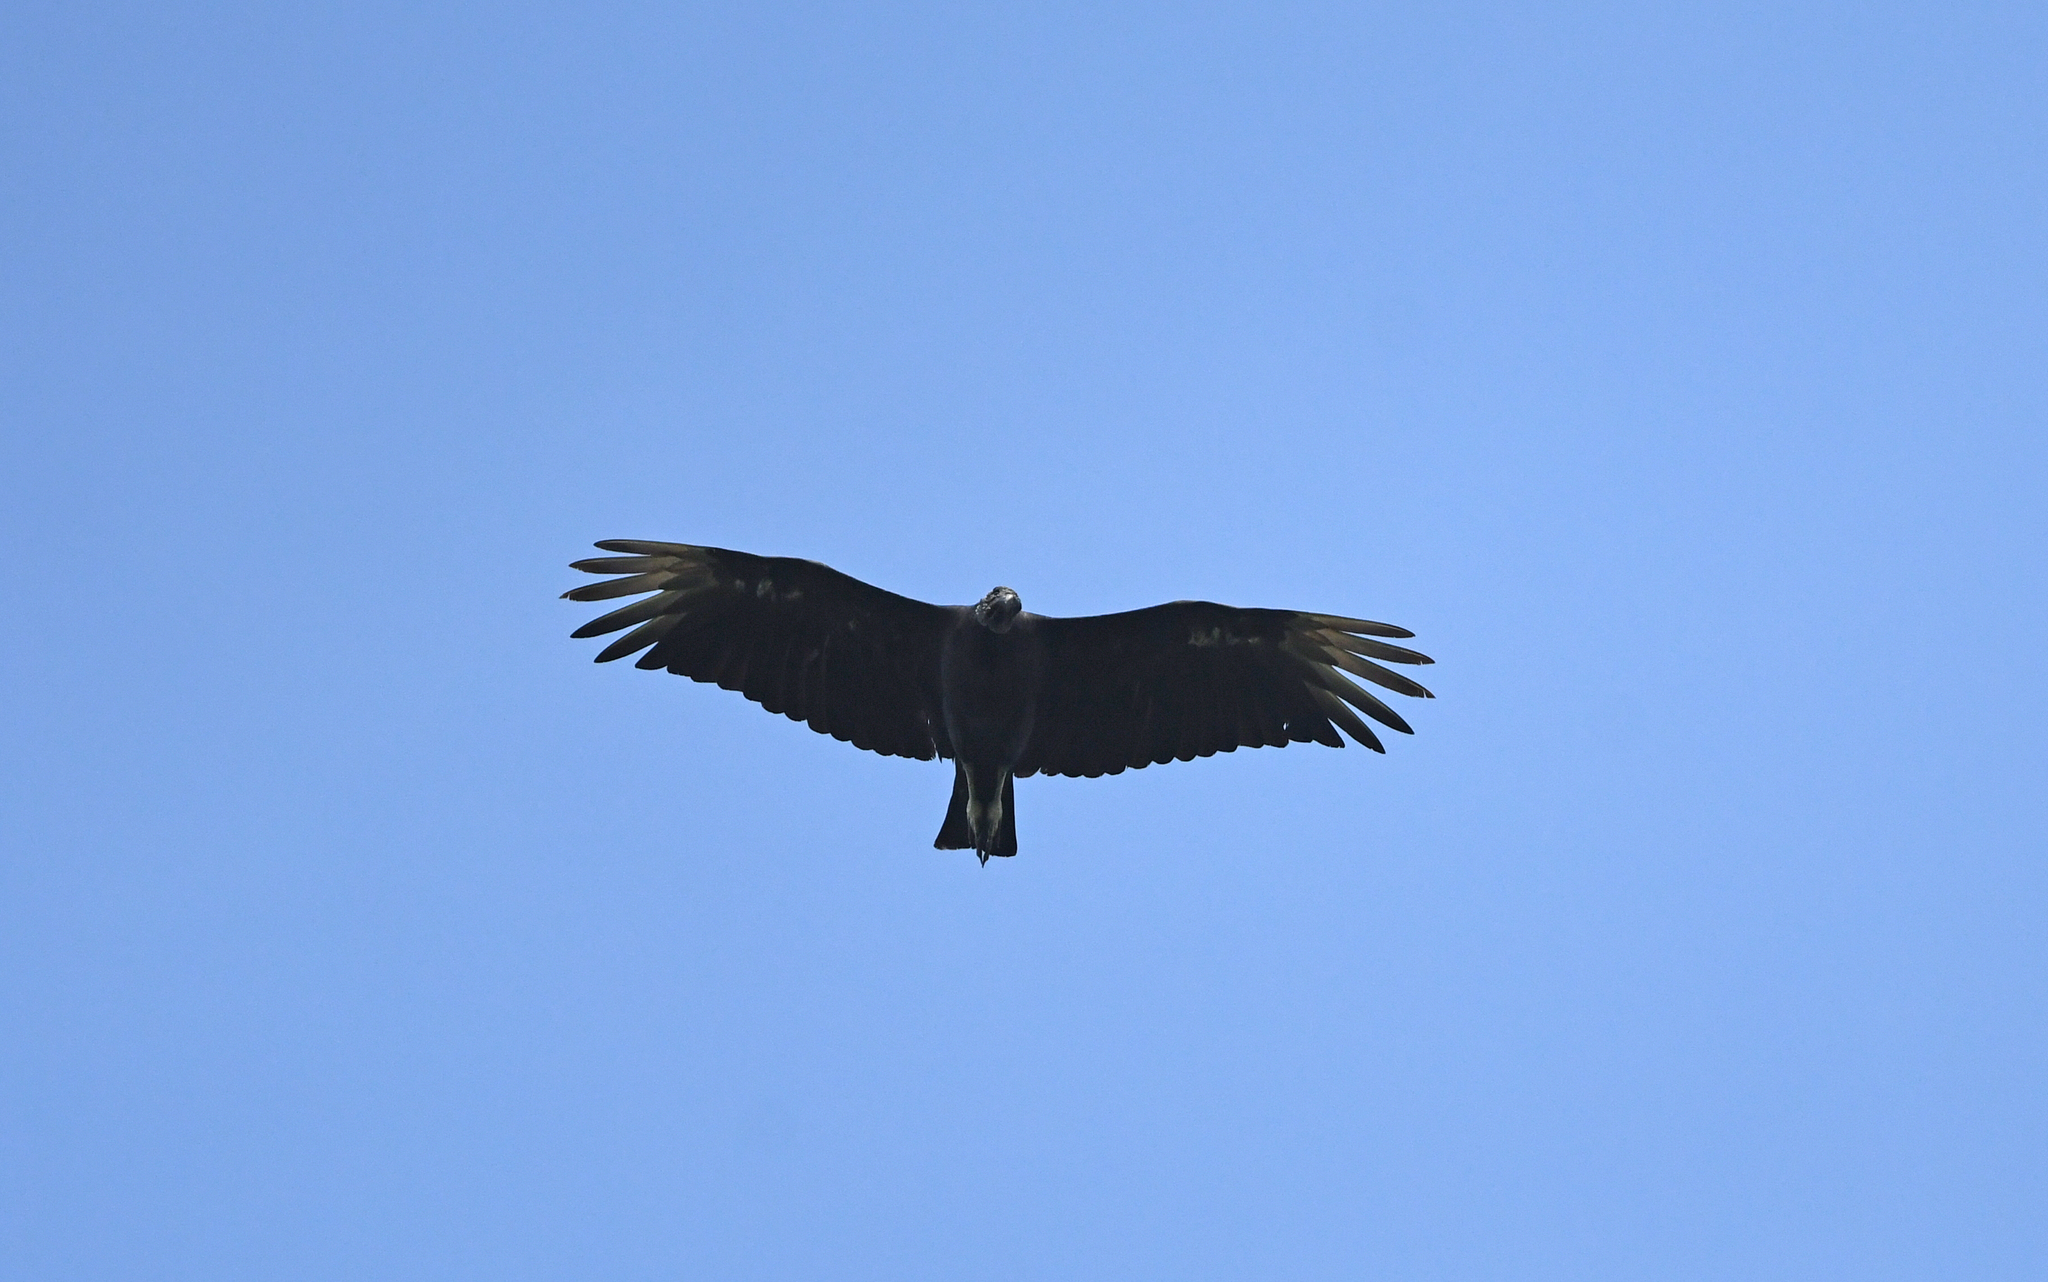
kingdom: Animalia
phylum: Chordata
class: Aves
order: Accipitriformes
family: Cathartidae
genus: Coragyps
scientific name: Coragyps atratus
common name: Black vulture
